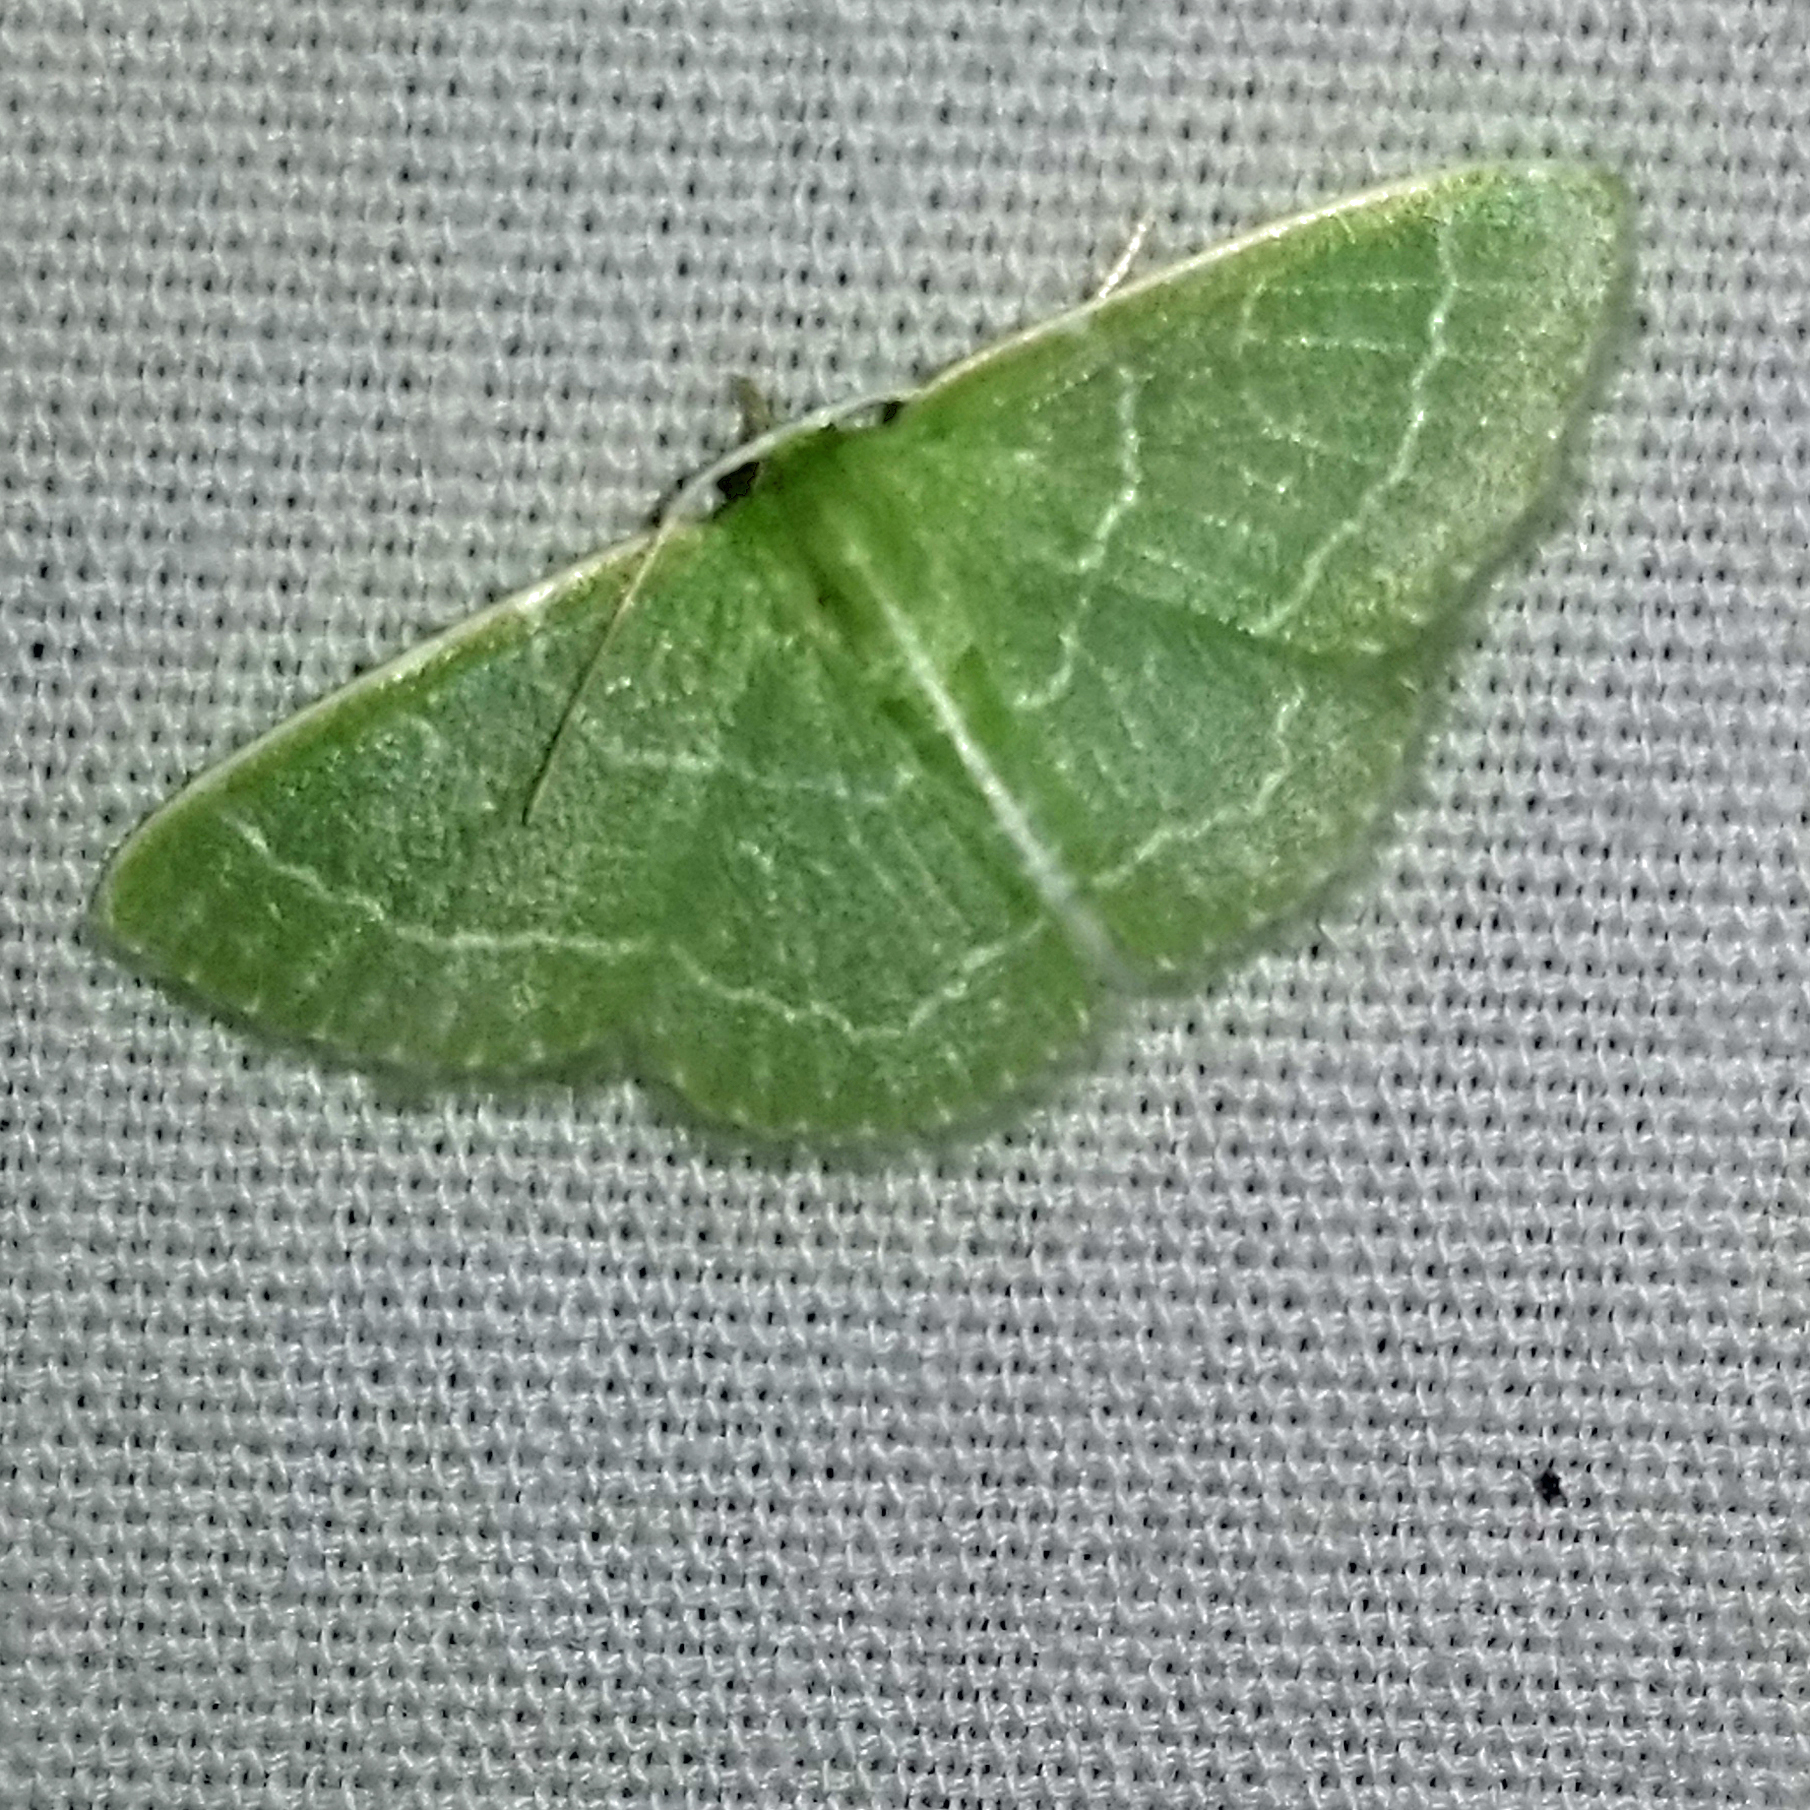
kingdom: Animalia
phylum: Arthropoda
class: Insecta
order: Lepidoptera
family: Geometridae
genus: Synchlora
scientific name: Synchlora aerata
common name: Wavy-lined emerald
